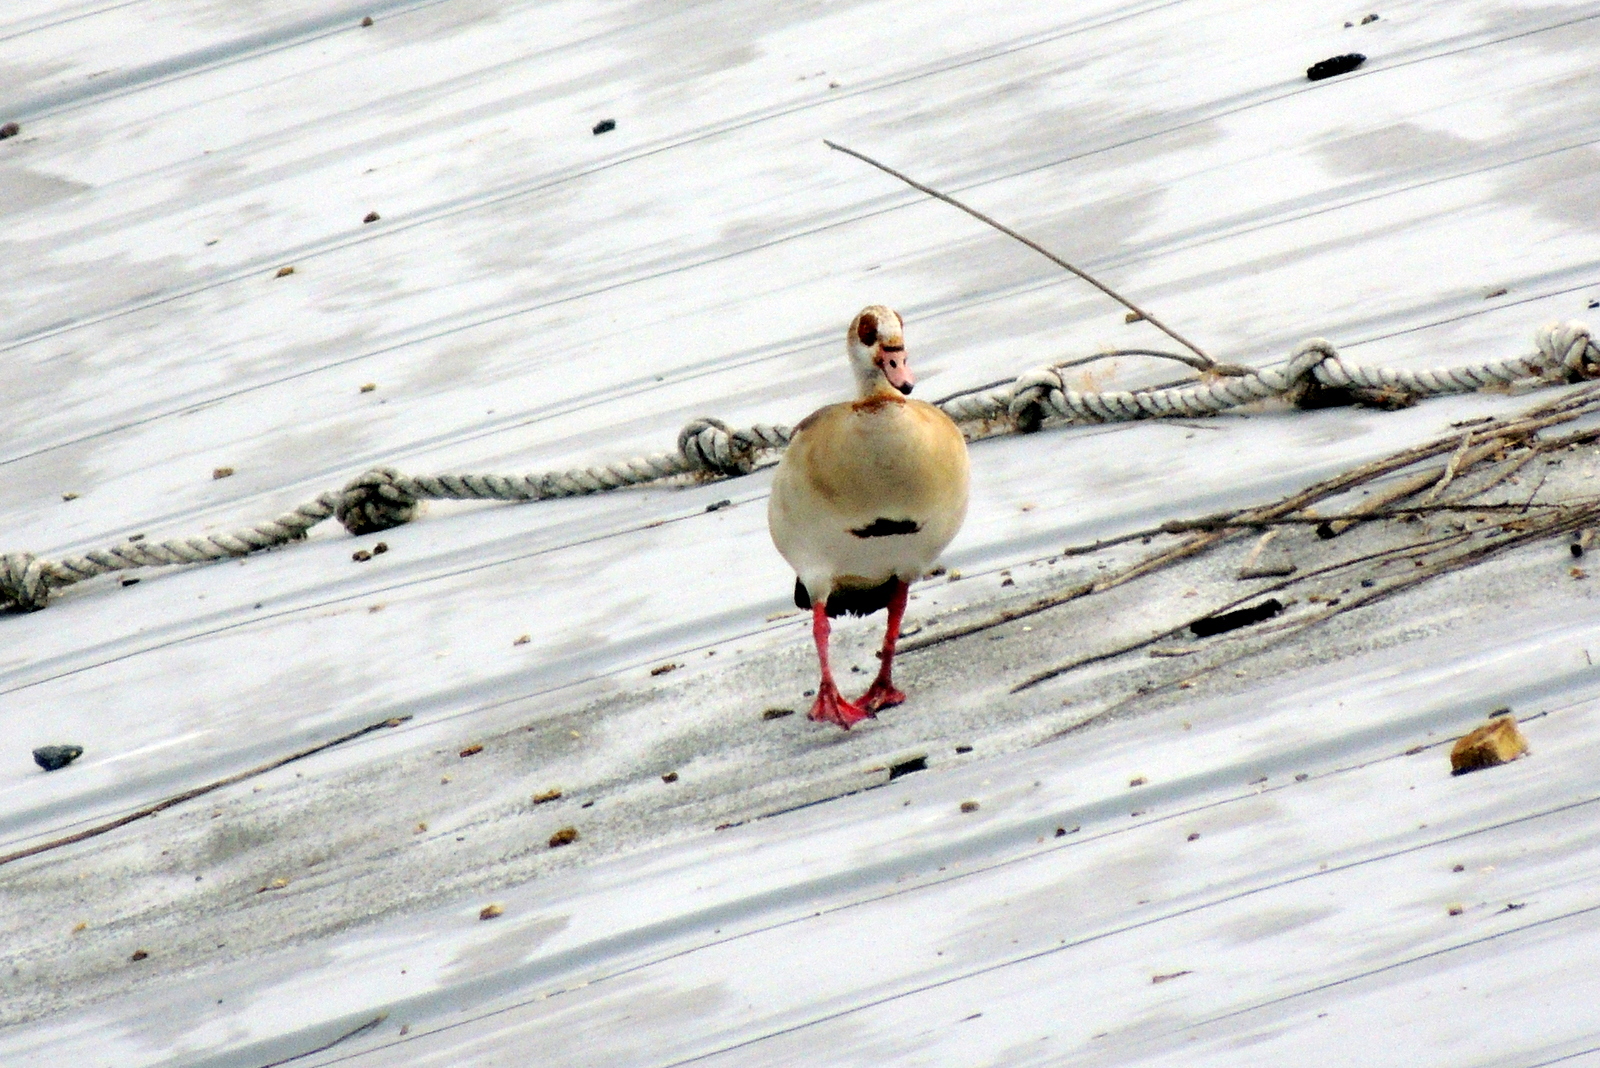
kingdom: Animalia
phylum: Chordata
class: Aves
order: Anseriformes
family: Anatidae
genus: Alopochen
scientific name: Alopochen aegyptiaca
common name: Egyptian goose
